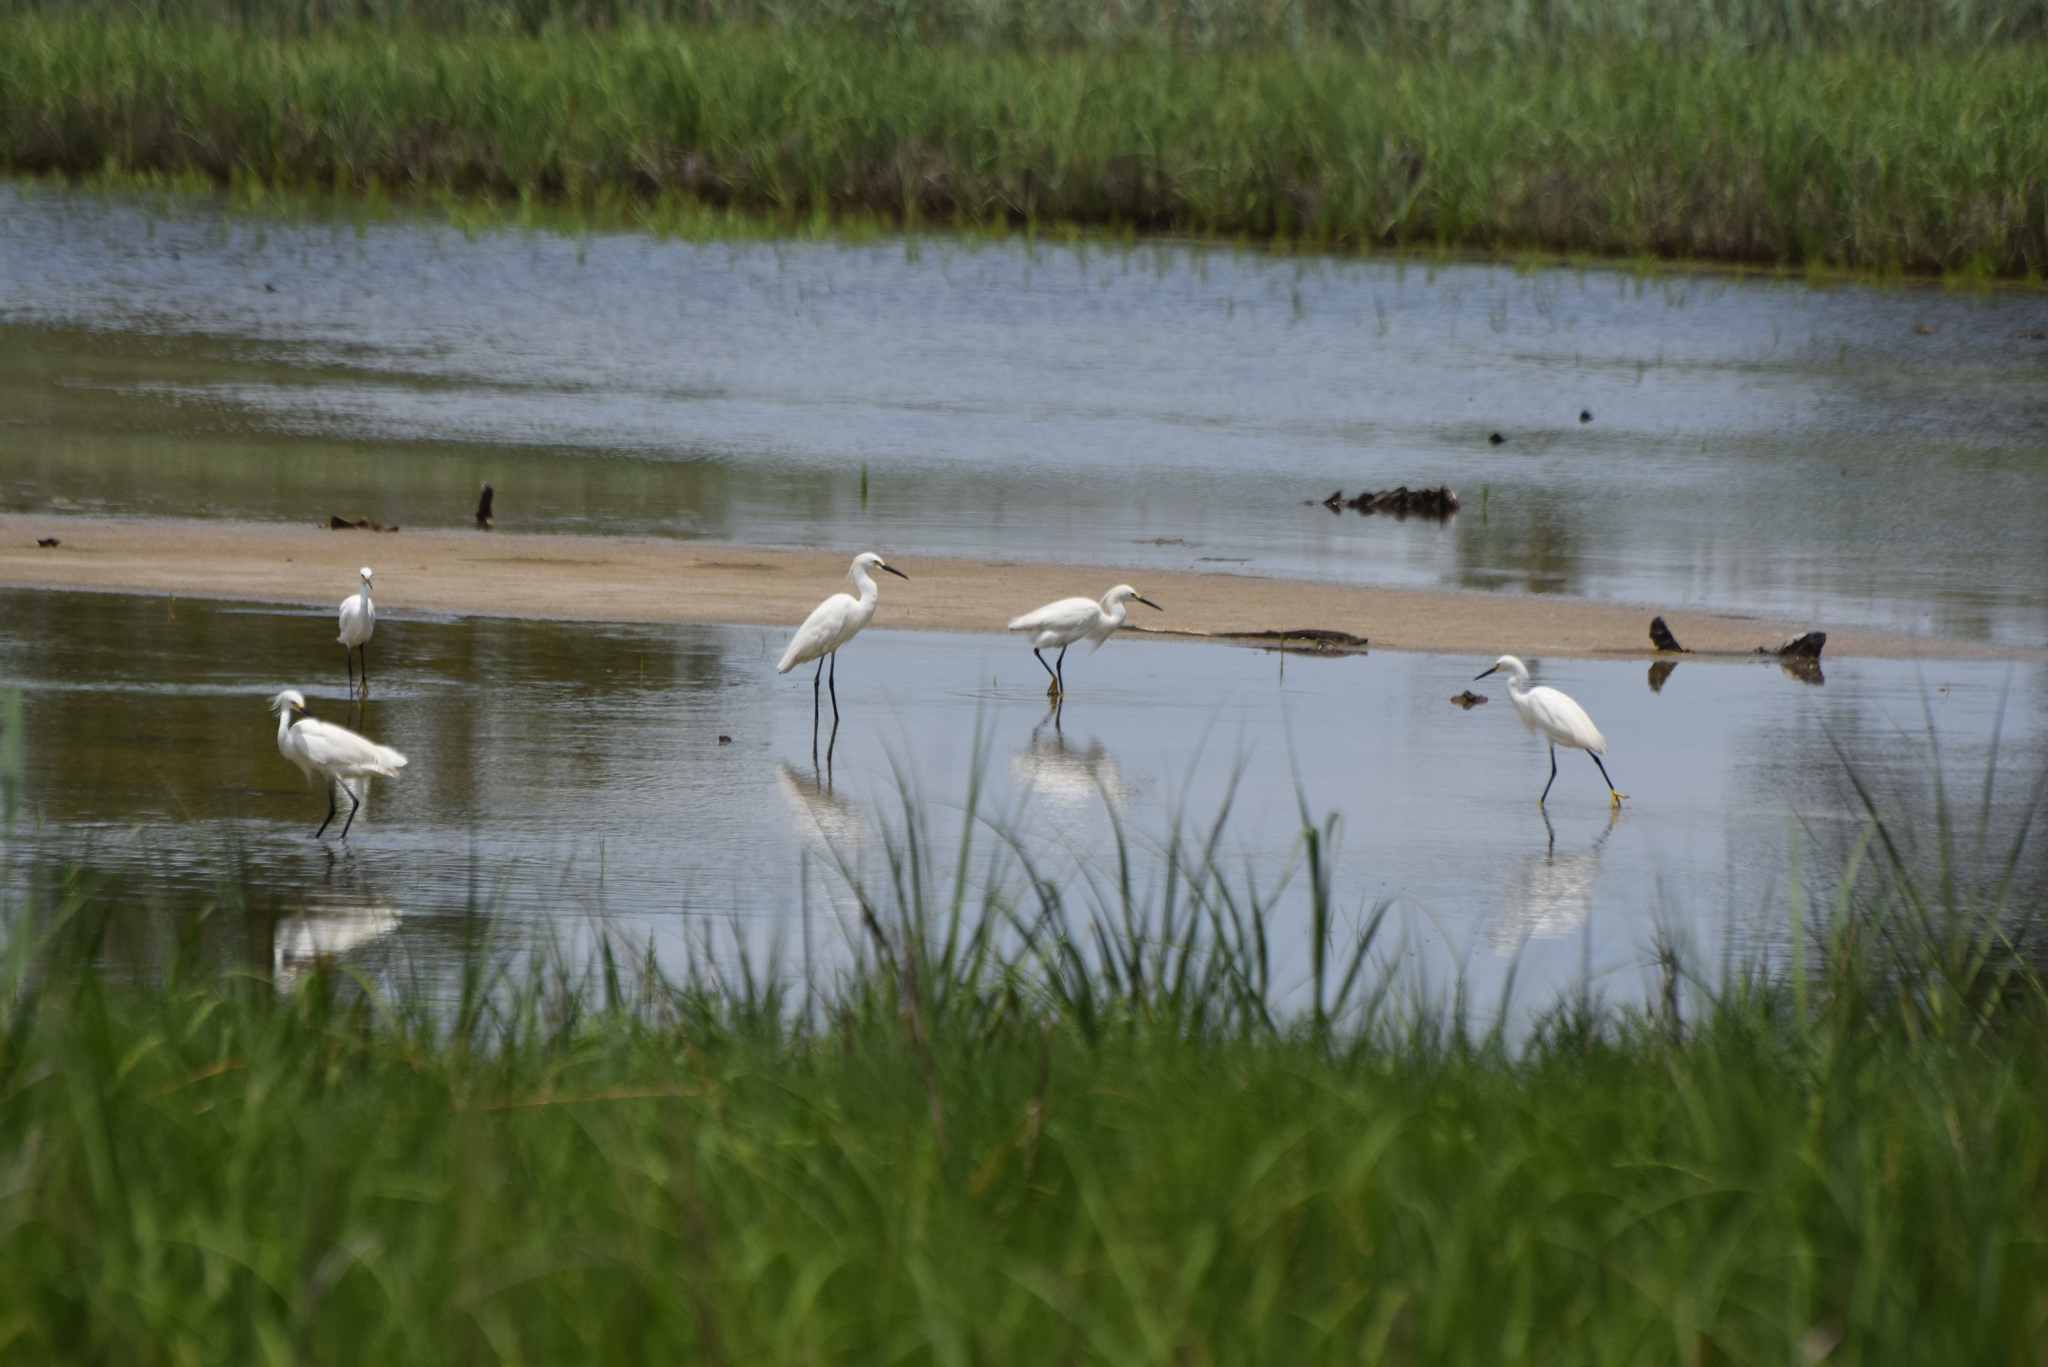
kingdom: Animalia
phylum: Chordata
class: Aves
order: Pelecaniformes
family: Ardeidae
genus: Egretta
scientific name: Egretta thula
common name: Snowy egret
